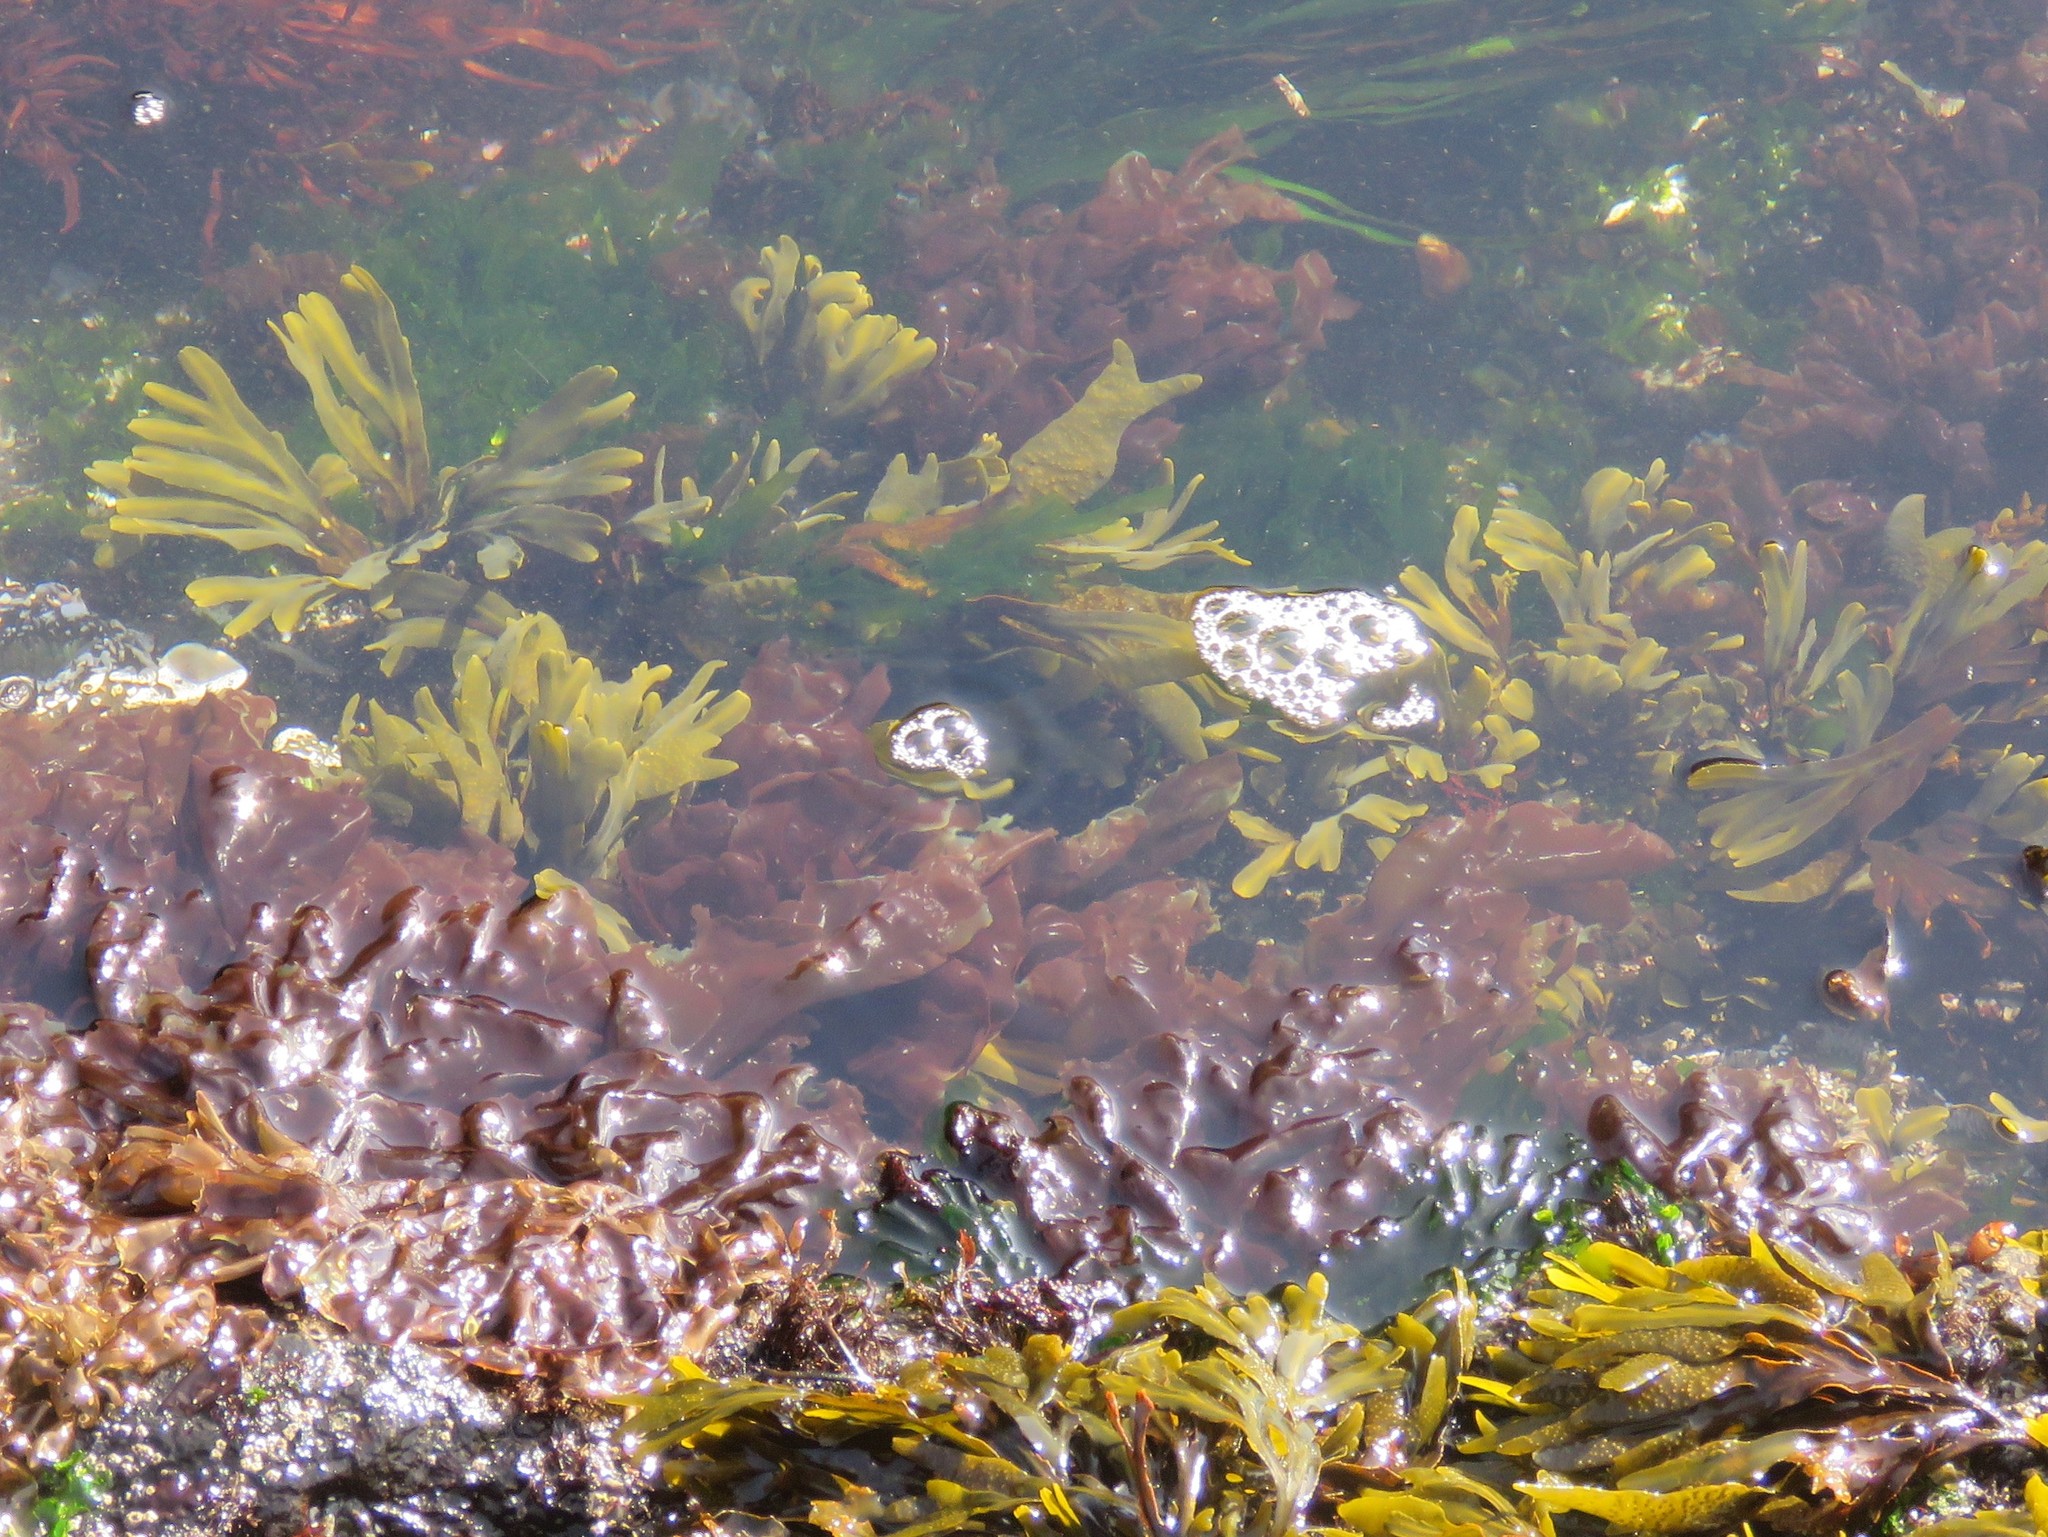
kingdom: Chromista
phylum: Ochrophyta
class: Phaeophyceae
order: Fucales
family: Fucaceae
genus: Fucus
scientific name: Fucus distichus
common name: Rockweed
